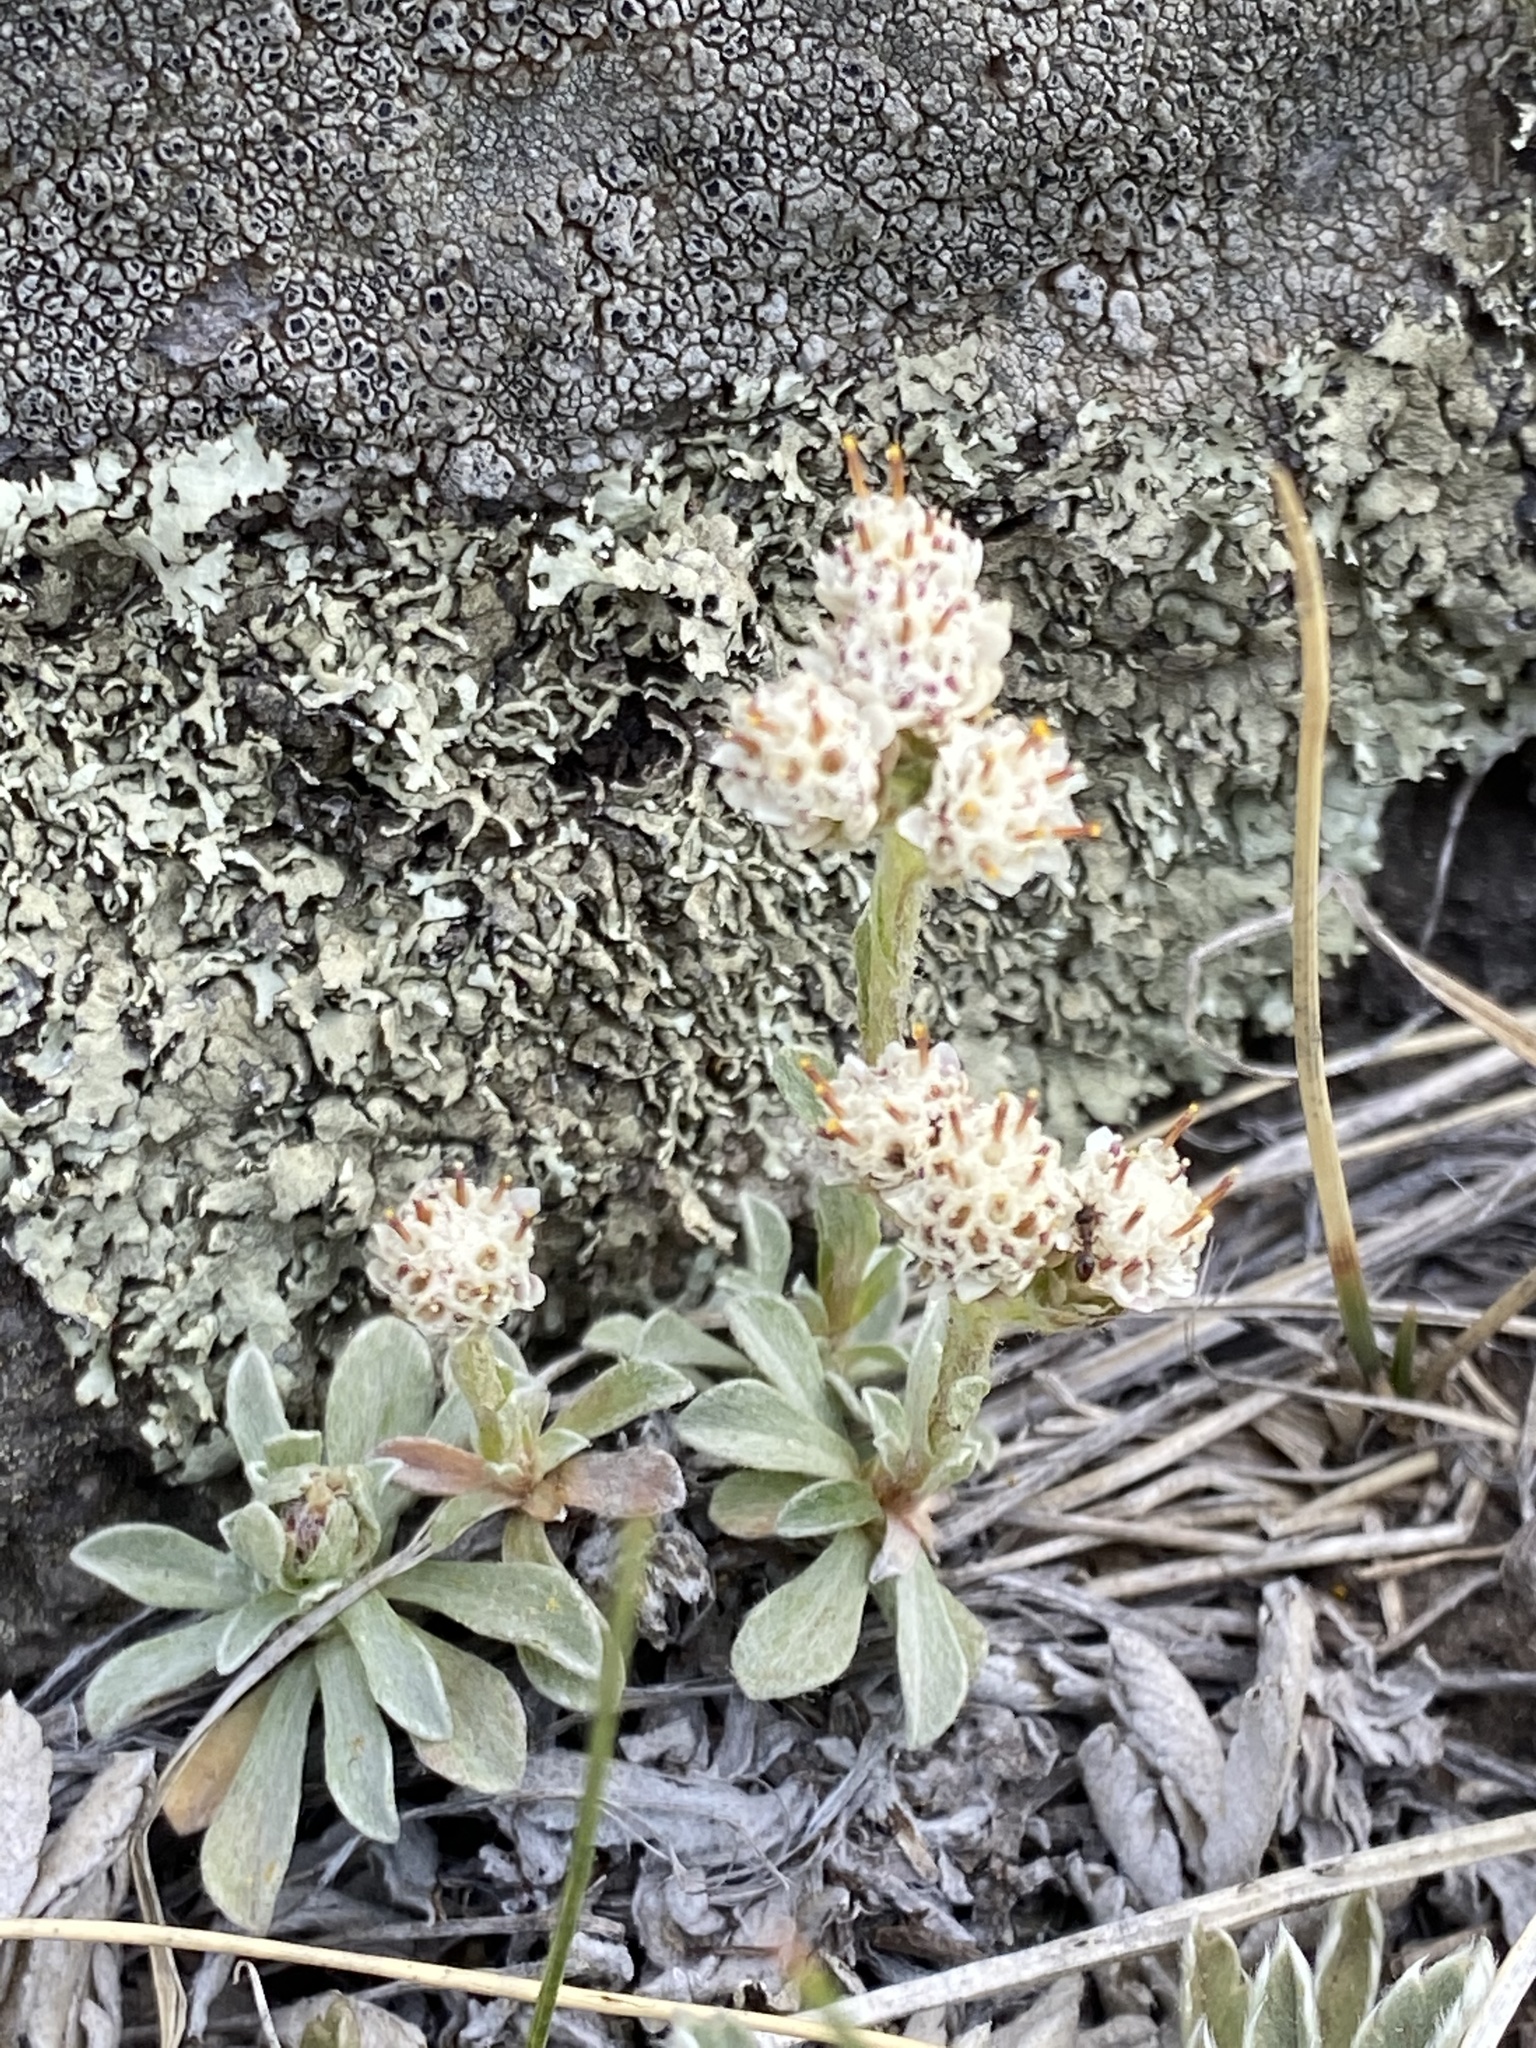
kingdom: Plantae
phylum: Tracheophyta
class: Magnoliopsida
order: Asterales
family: Asteraceae
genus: Antennaria
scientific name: Antennaria parvifolia
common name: Nuttall's pussytoes
